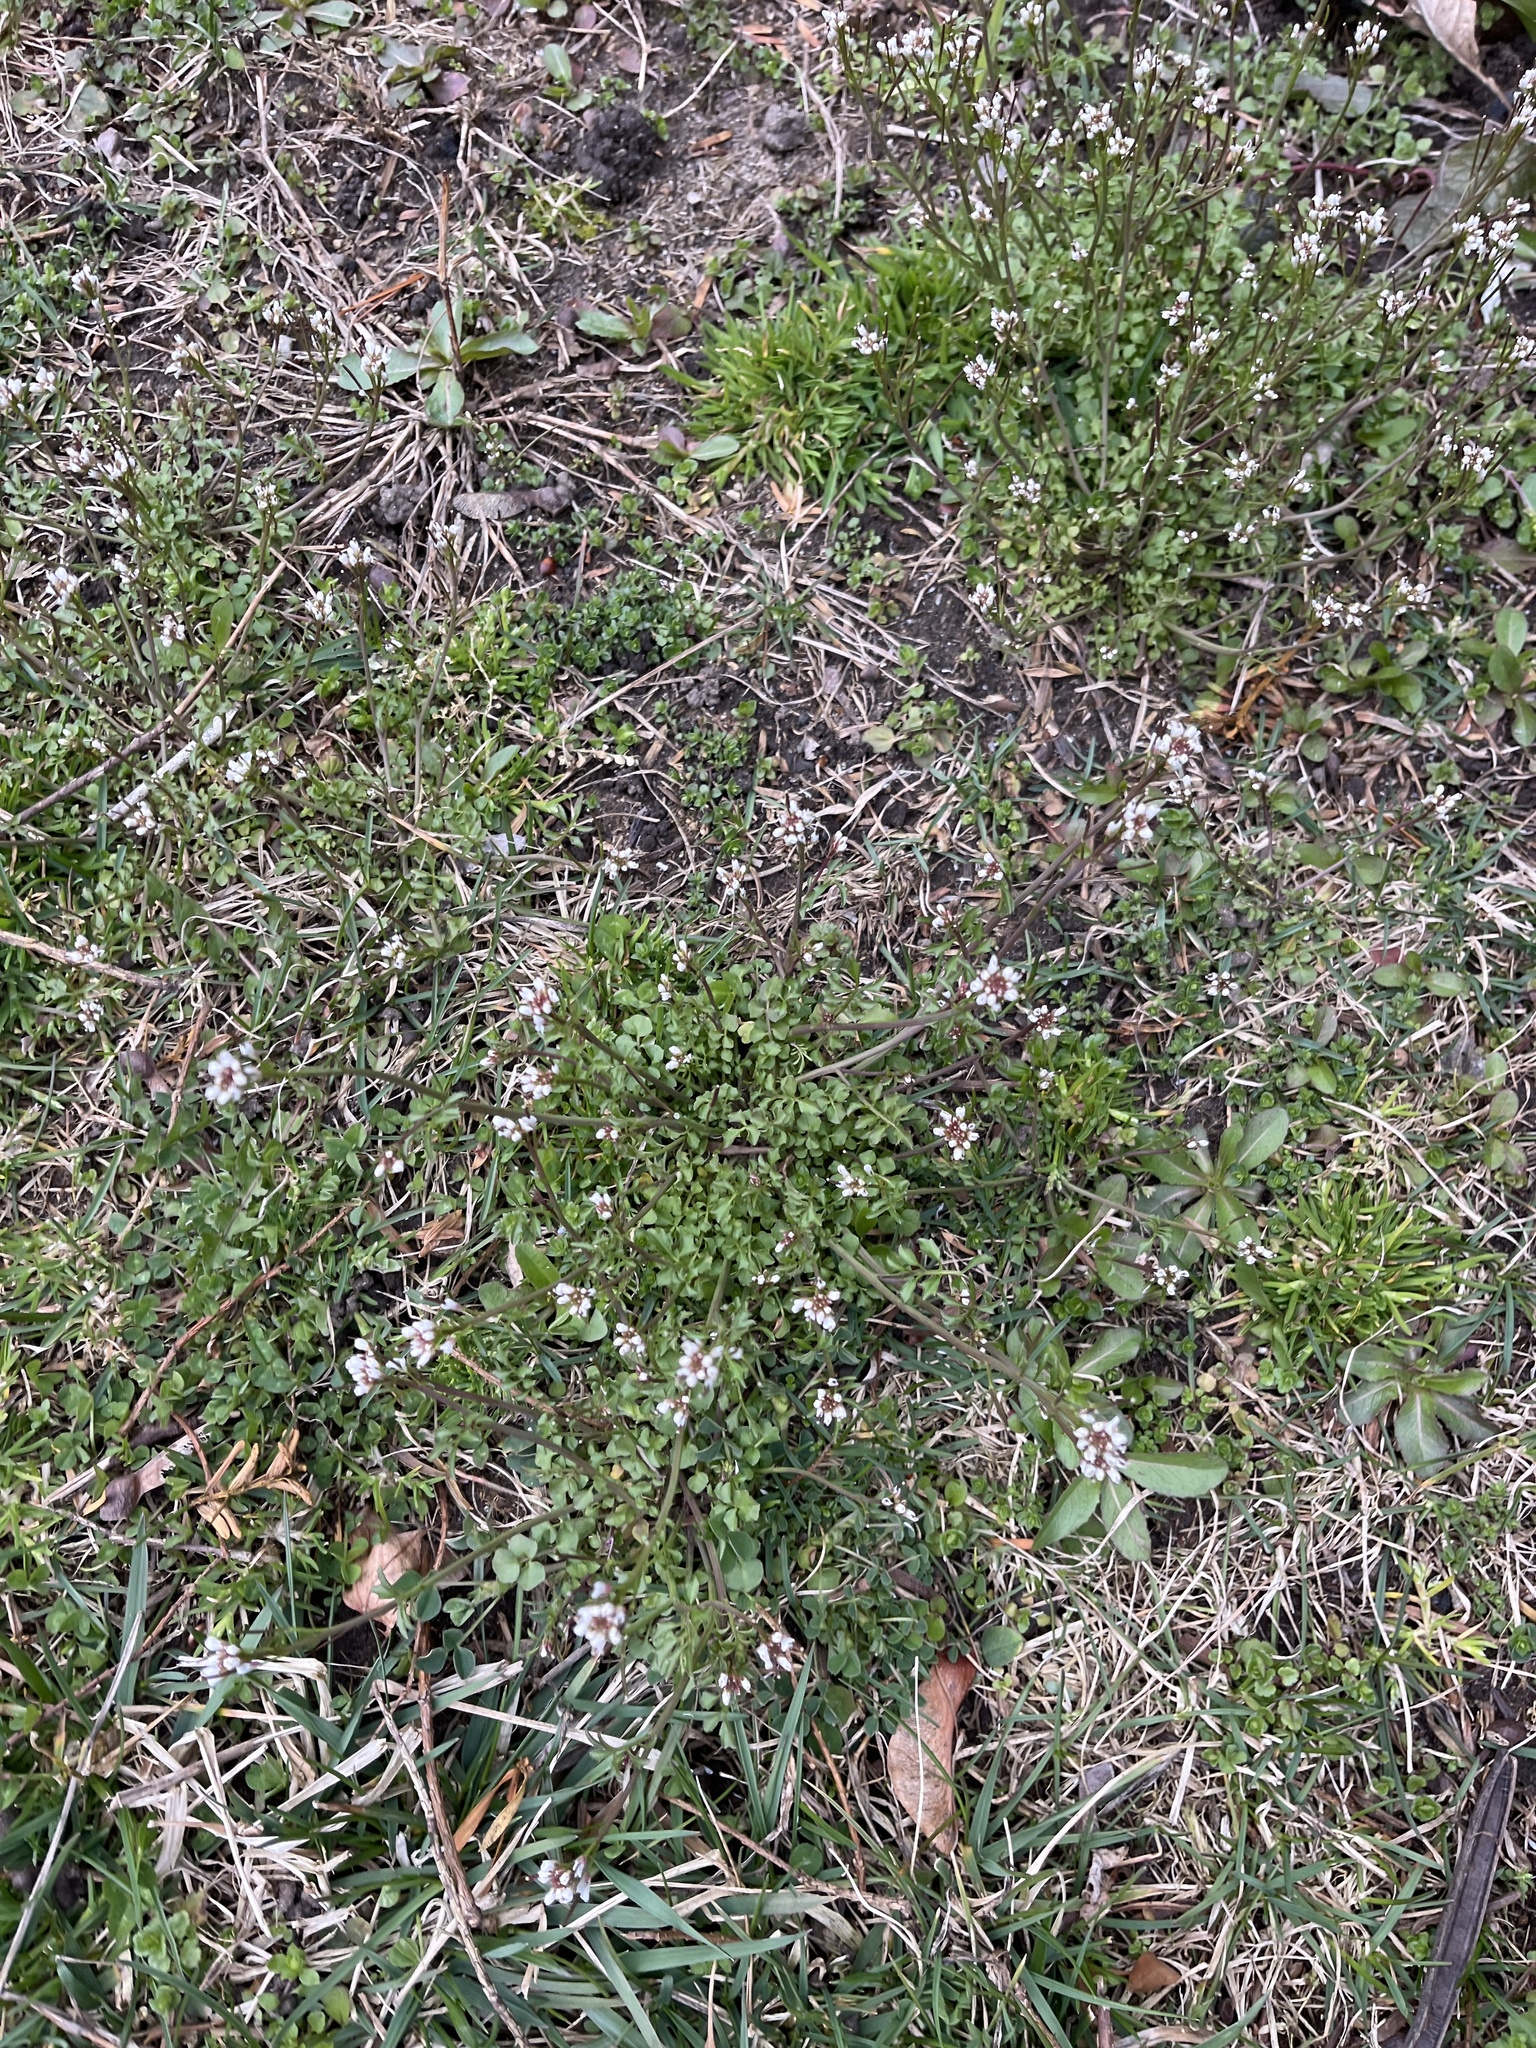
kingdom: Plantae
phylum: Tracheophyta
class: Magnoliopsida
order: Brassicales
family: Brassicaceae
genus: Cardamine
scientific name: Cardamine hirsuta
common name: Hairy bittercress
